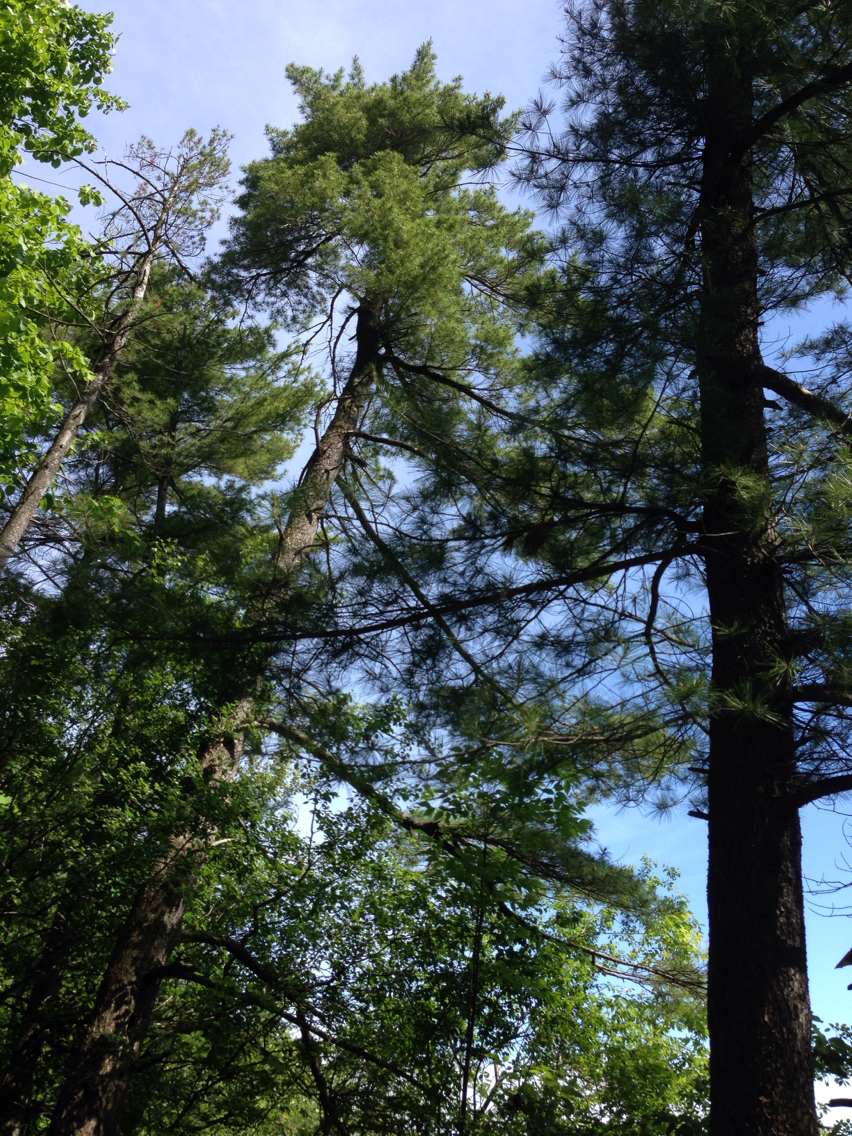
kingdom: Plantae
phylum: Tracheophyta
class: Pinopsida
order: Pinales
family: Pinaceae
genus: Pinus
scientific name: Pinus strobus
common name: Weymouth pine
